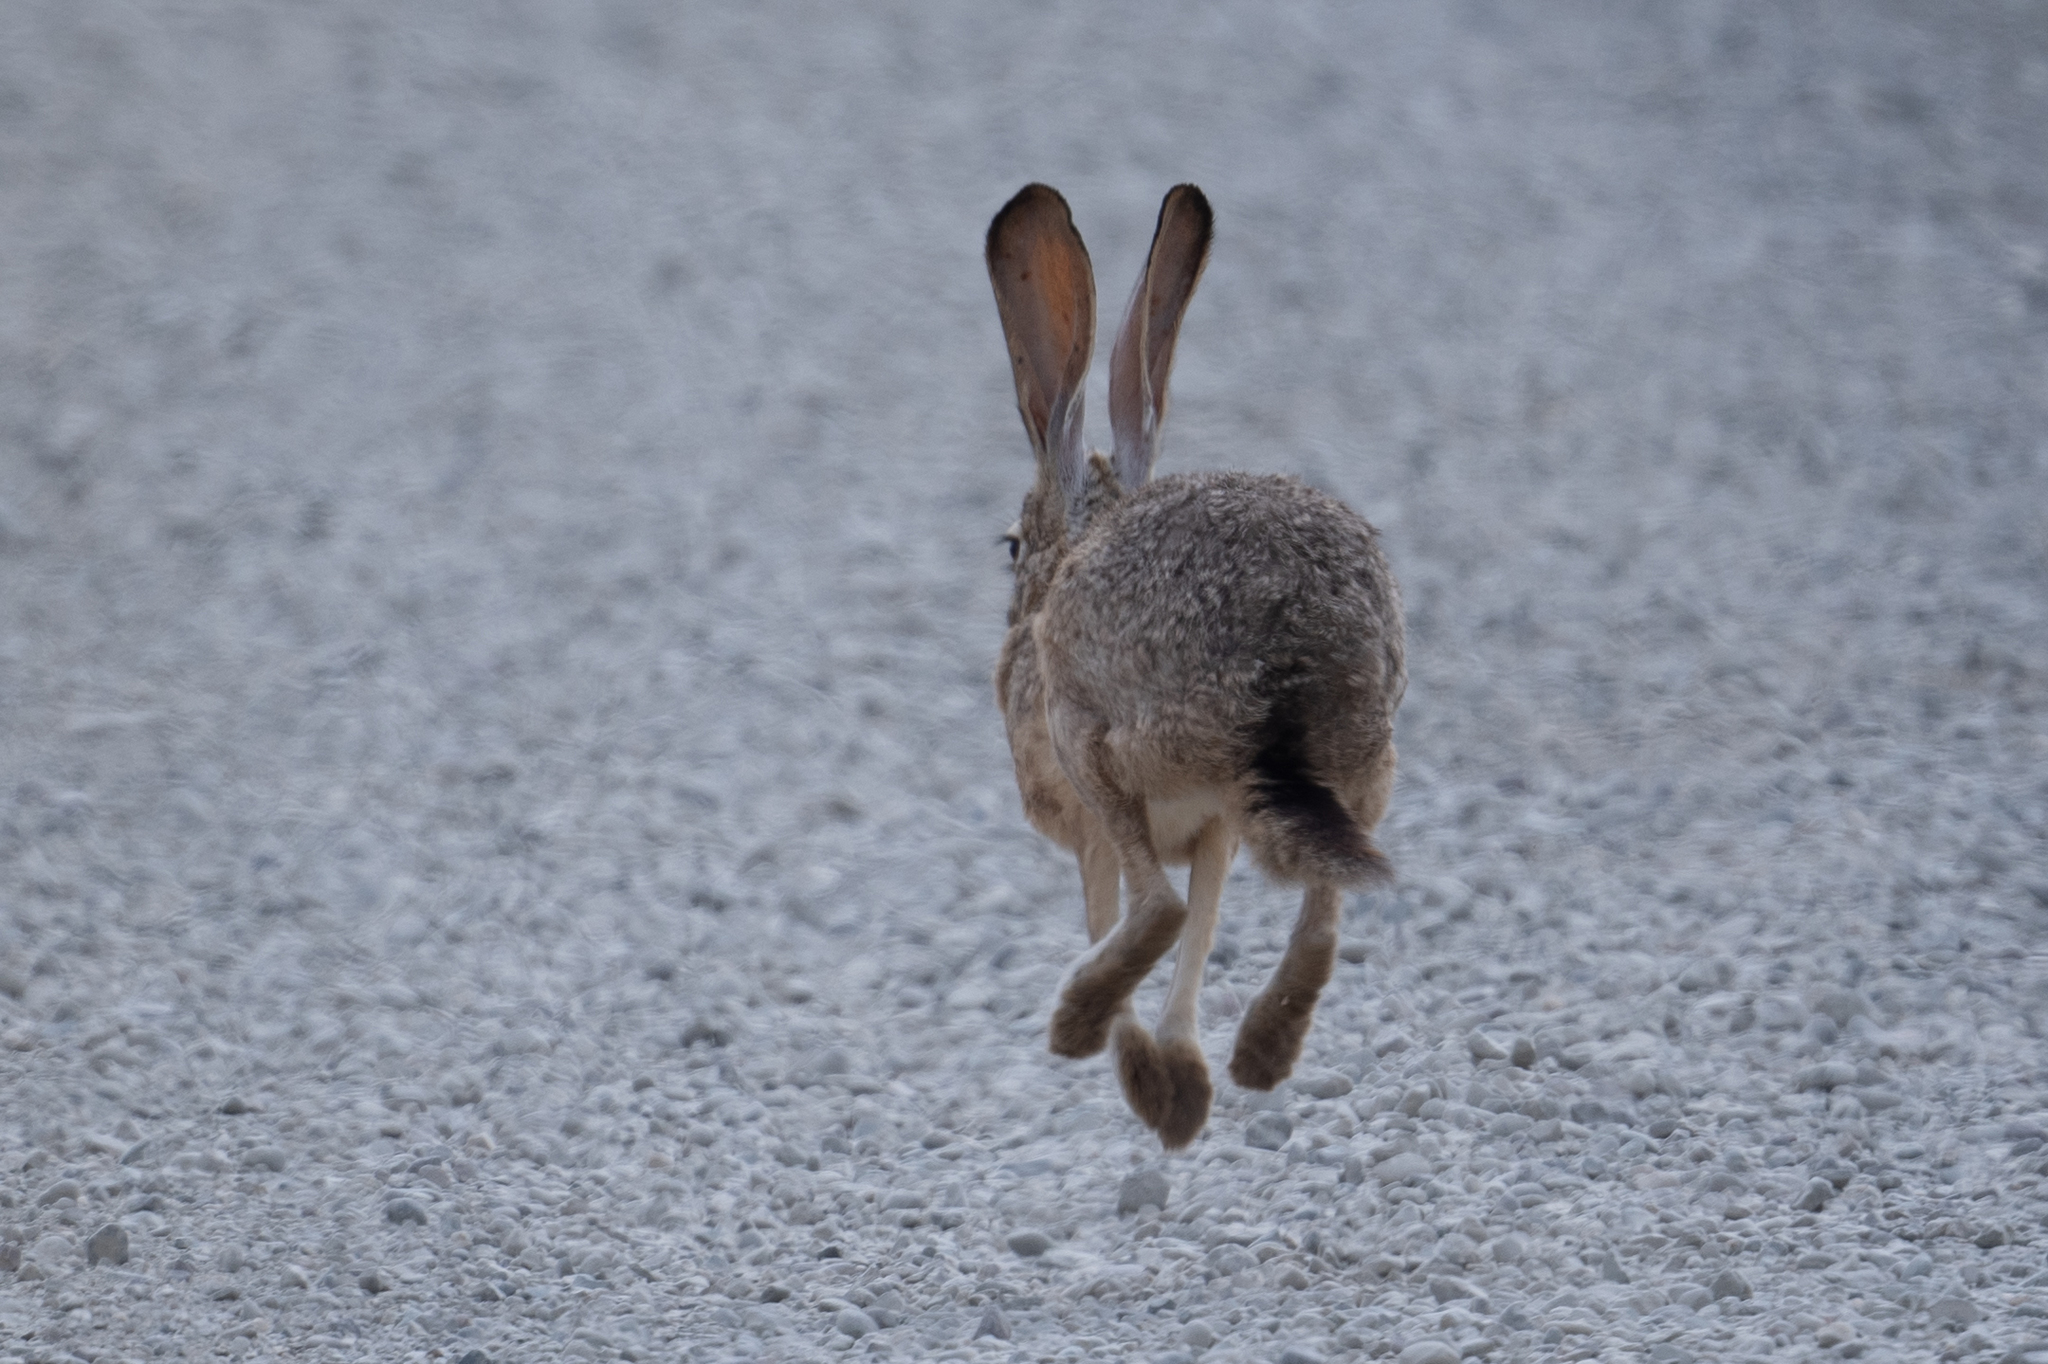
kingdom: Animalia
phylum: Chordata
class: Mammalia
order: Lagomorpha
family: Leporidae
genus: Lepus
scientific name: Lepus californicus
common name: Black-tailed jackrabbit
